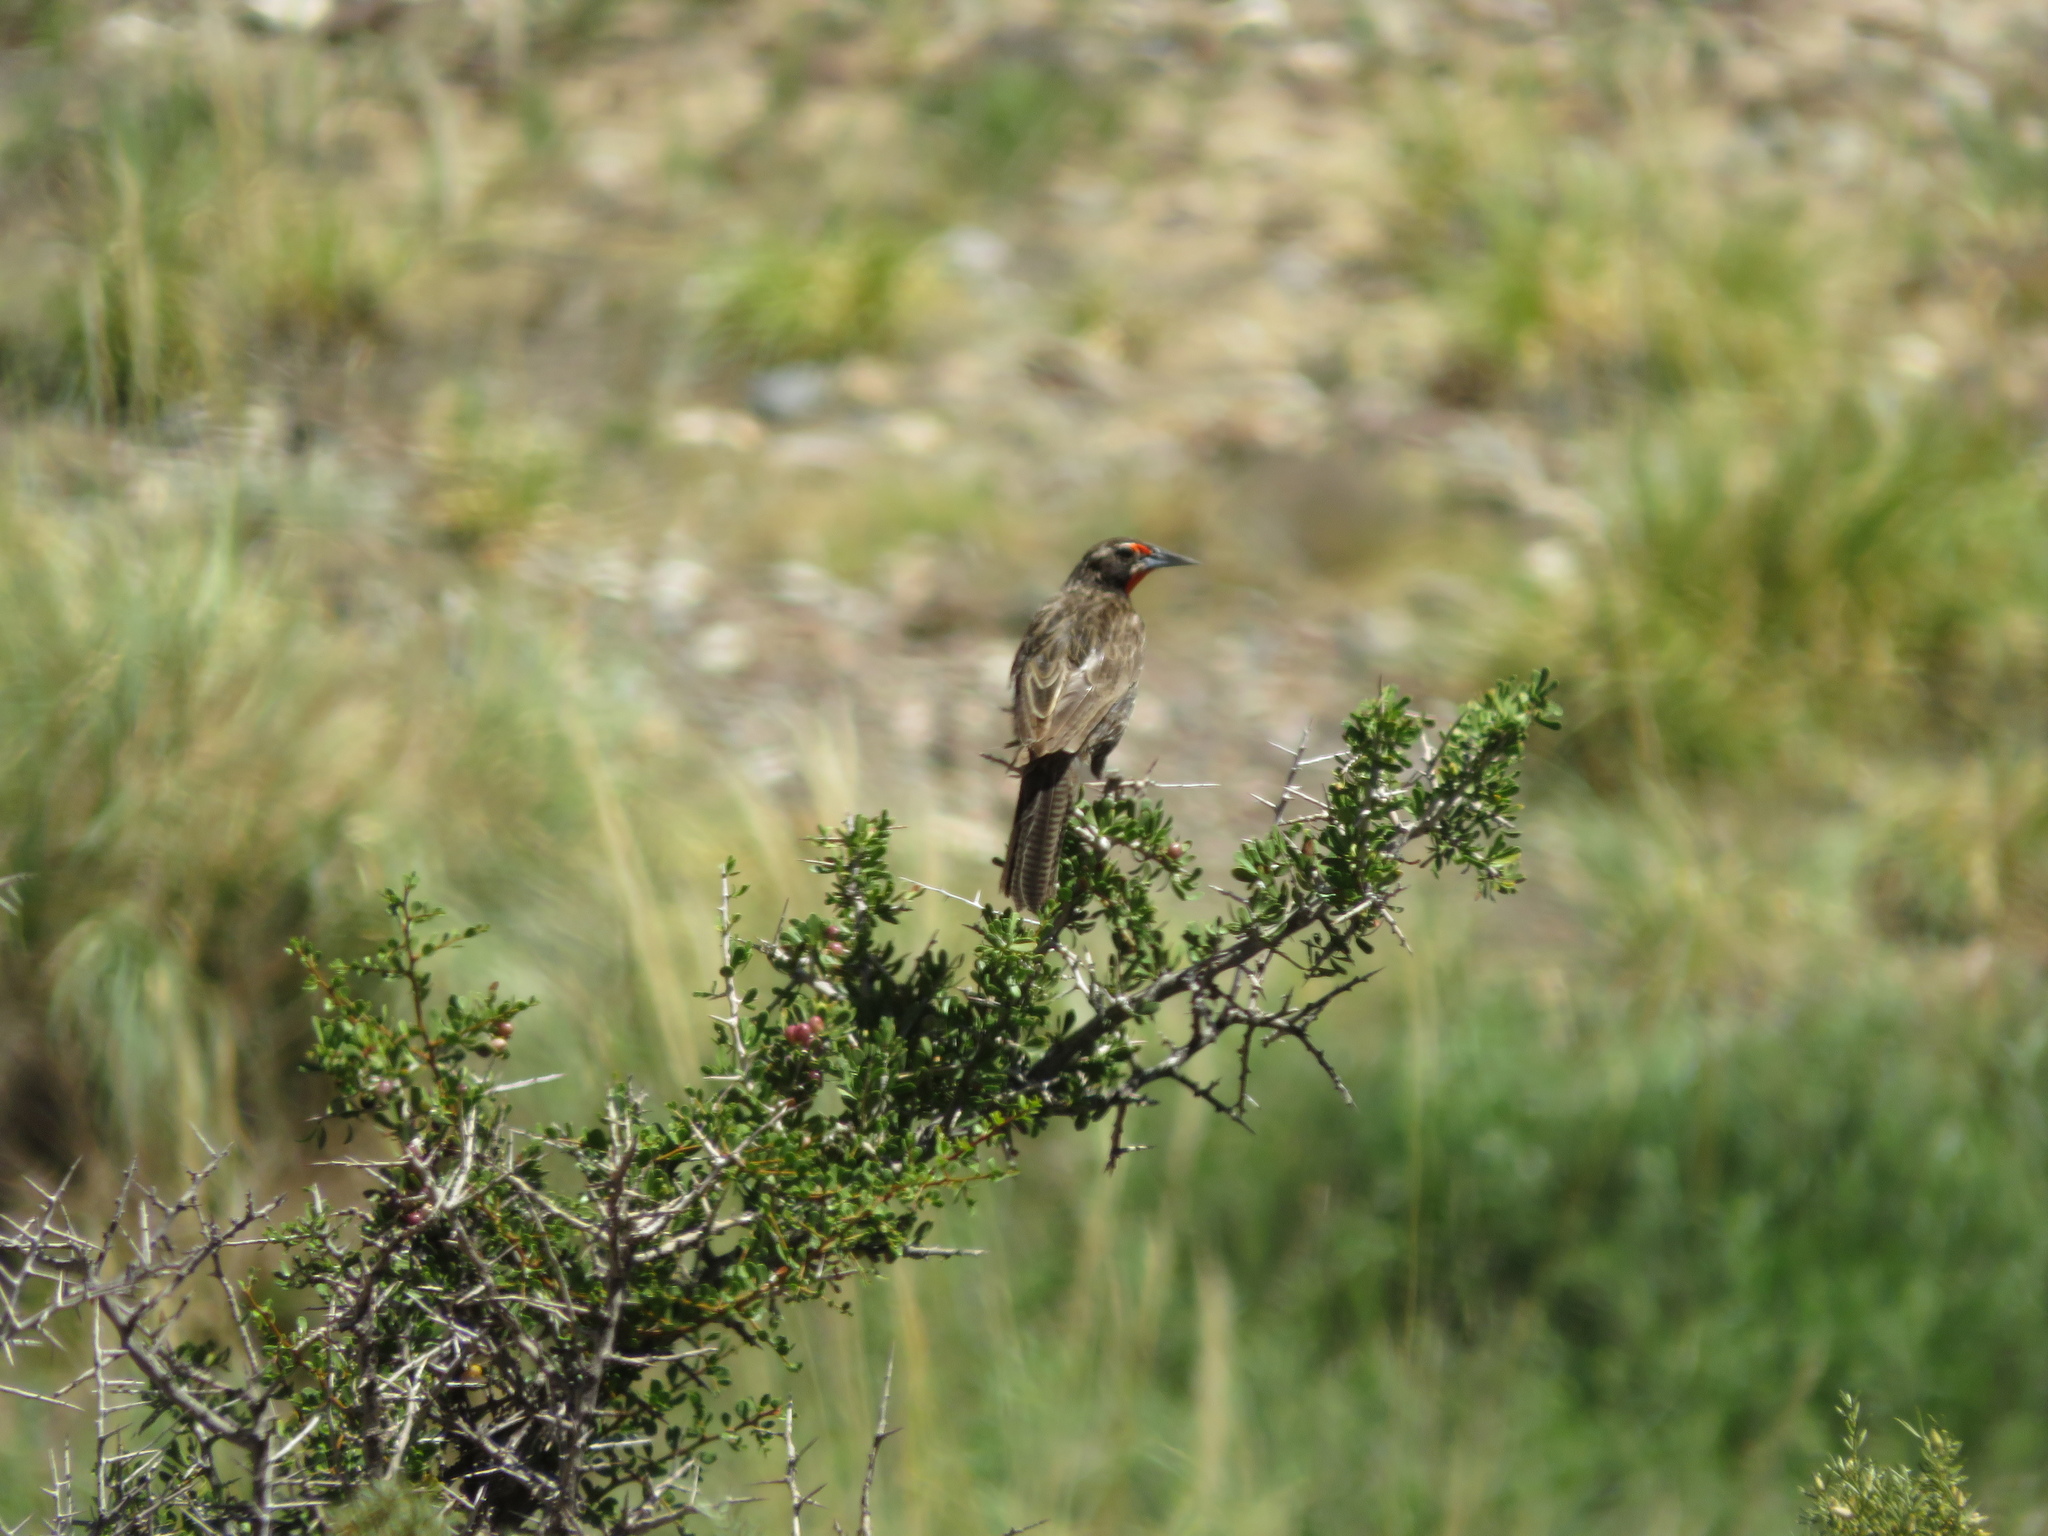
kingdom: Animalia
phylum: Chordata
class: Aves
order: Passeriformes
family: Icteridae
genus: Sturnella
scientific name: Sturnella loyca
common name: Long-tailed meadowlark
